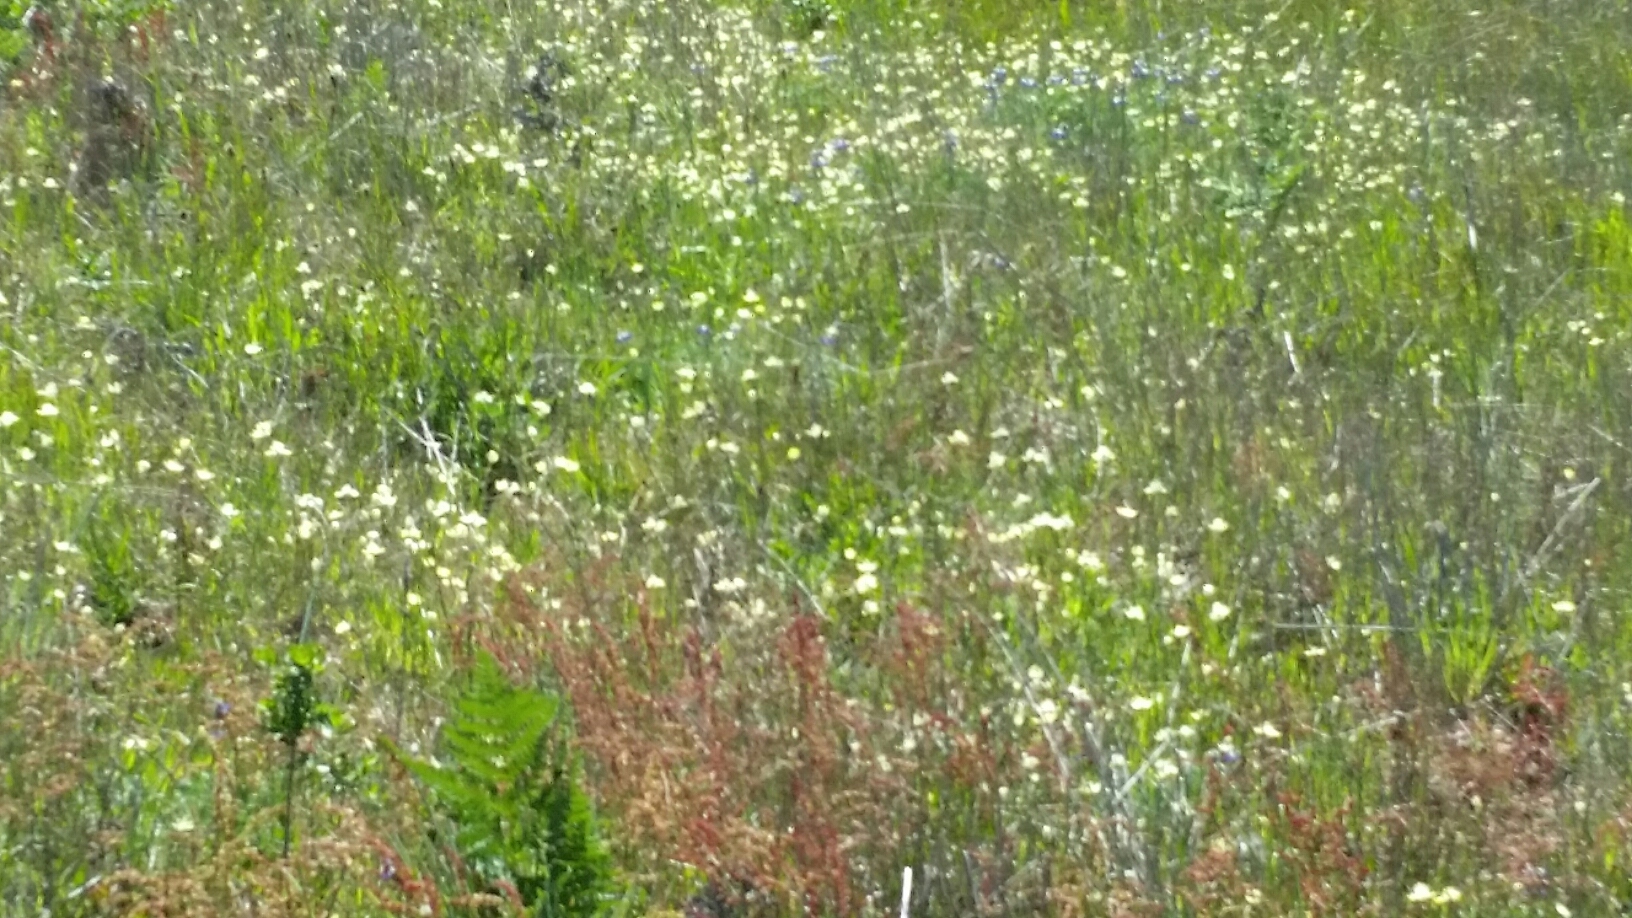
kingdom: Plantae
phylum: Tracheophyta
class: Magnoliopsida
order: Ranunculales
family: Papaveraceae
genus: Platystemon
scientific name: Platystemon californicus
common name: Cream-cups
